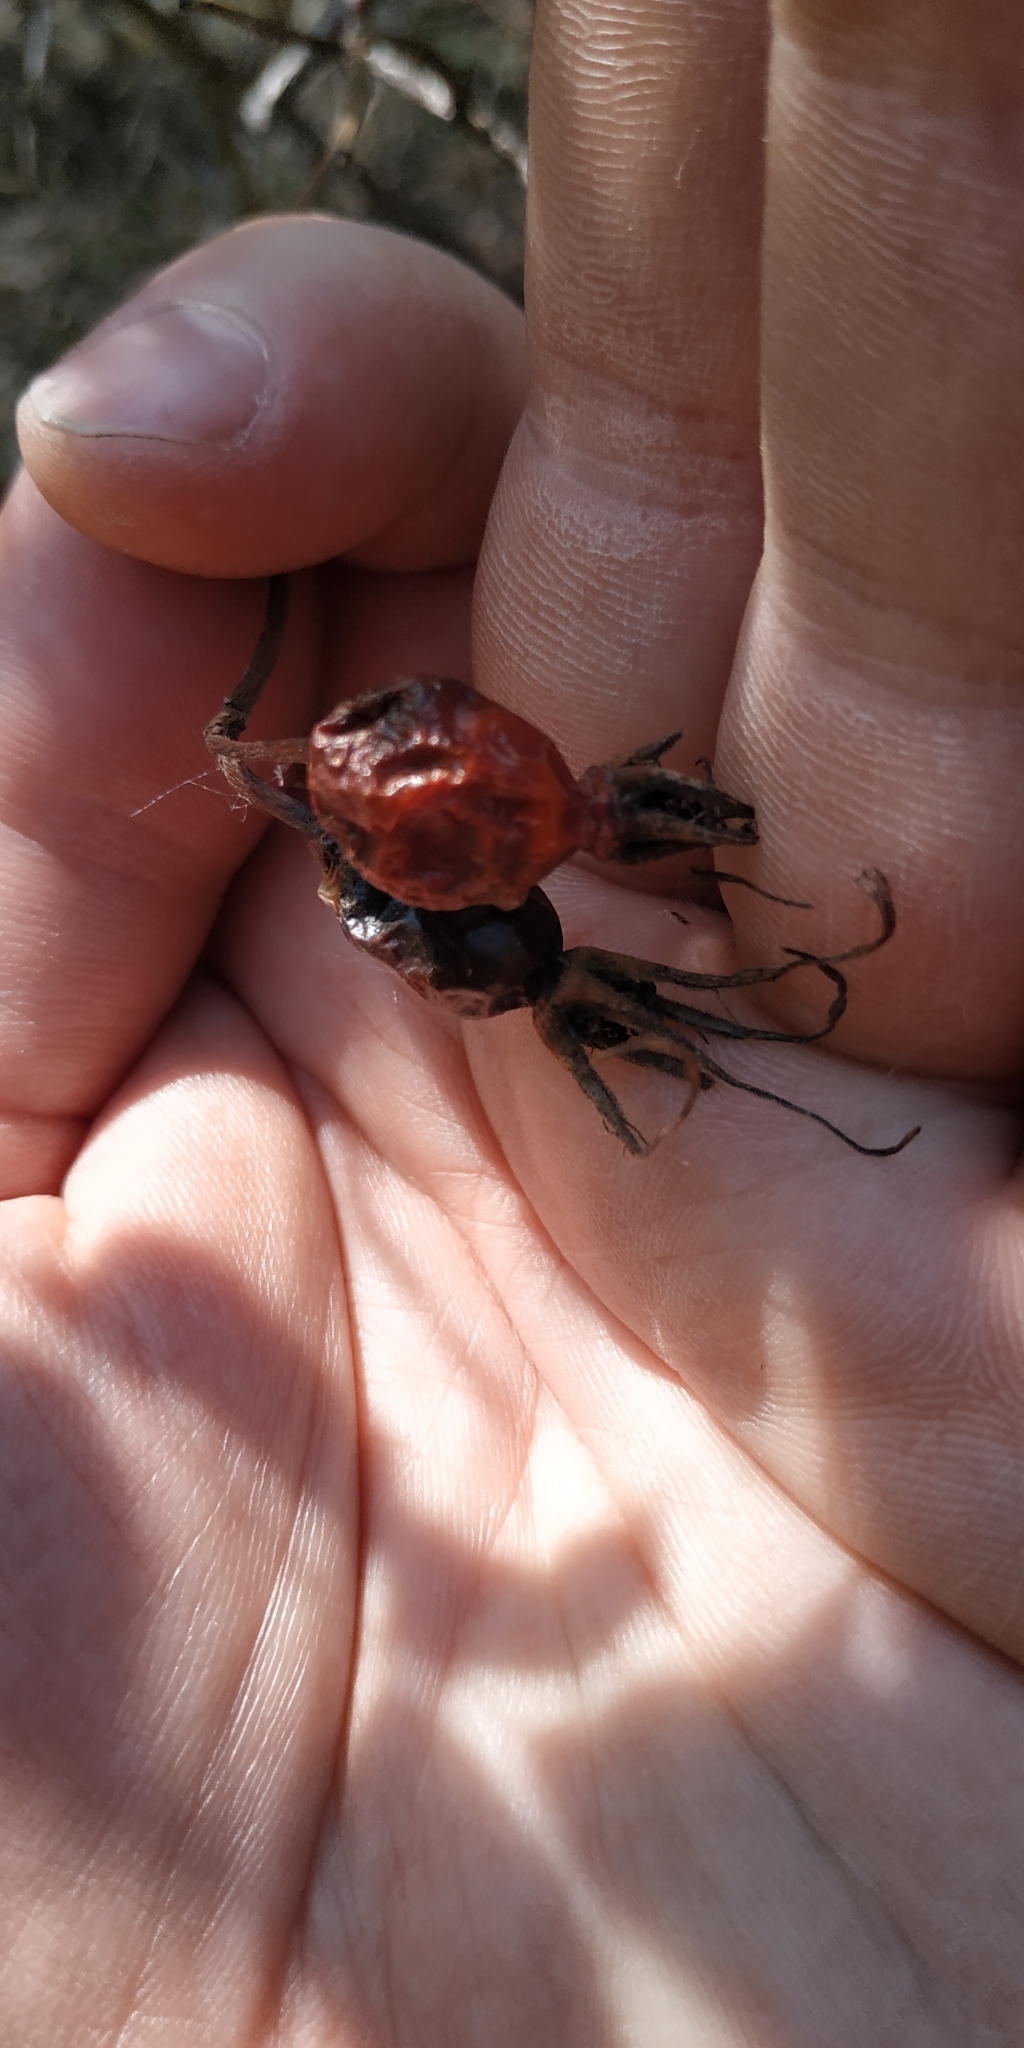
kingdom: Plantae
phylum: Tracheophyta
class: Magnoliopsida
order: Rosales
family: Rosaceae
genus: Rosa
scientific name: Rosa glabrifolia
